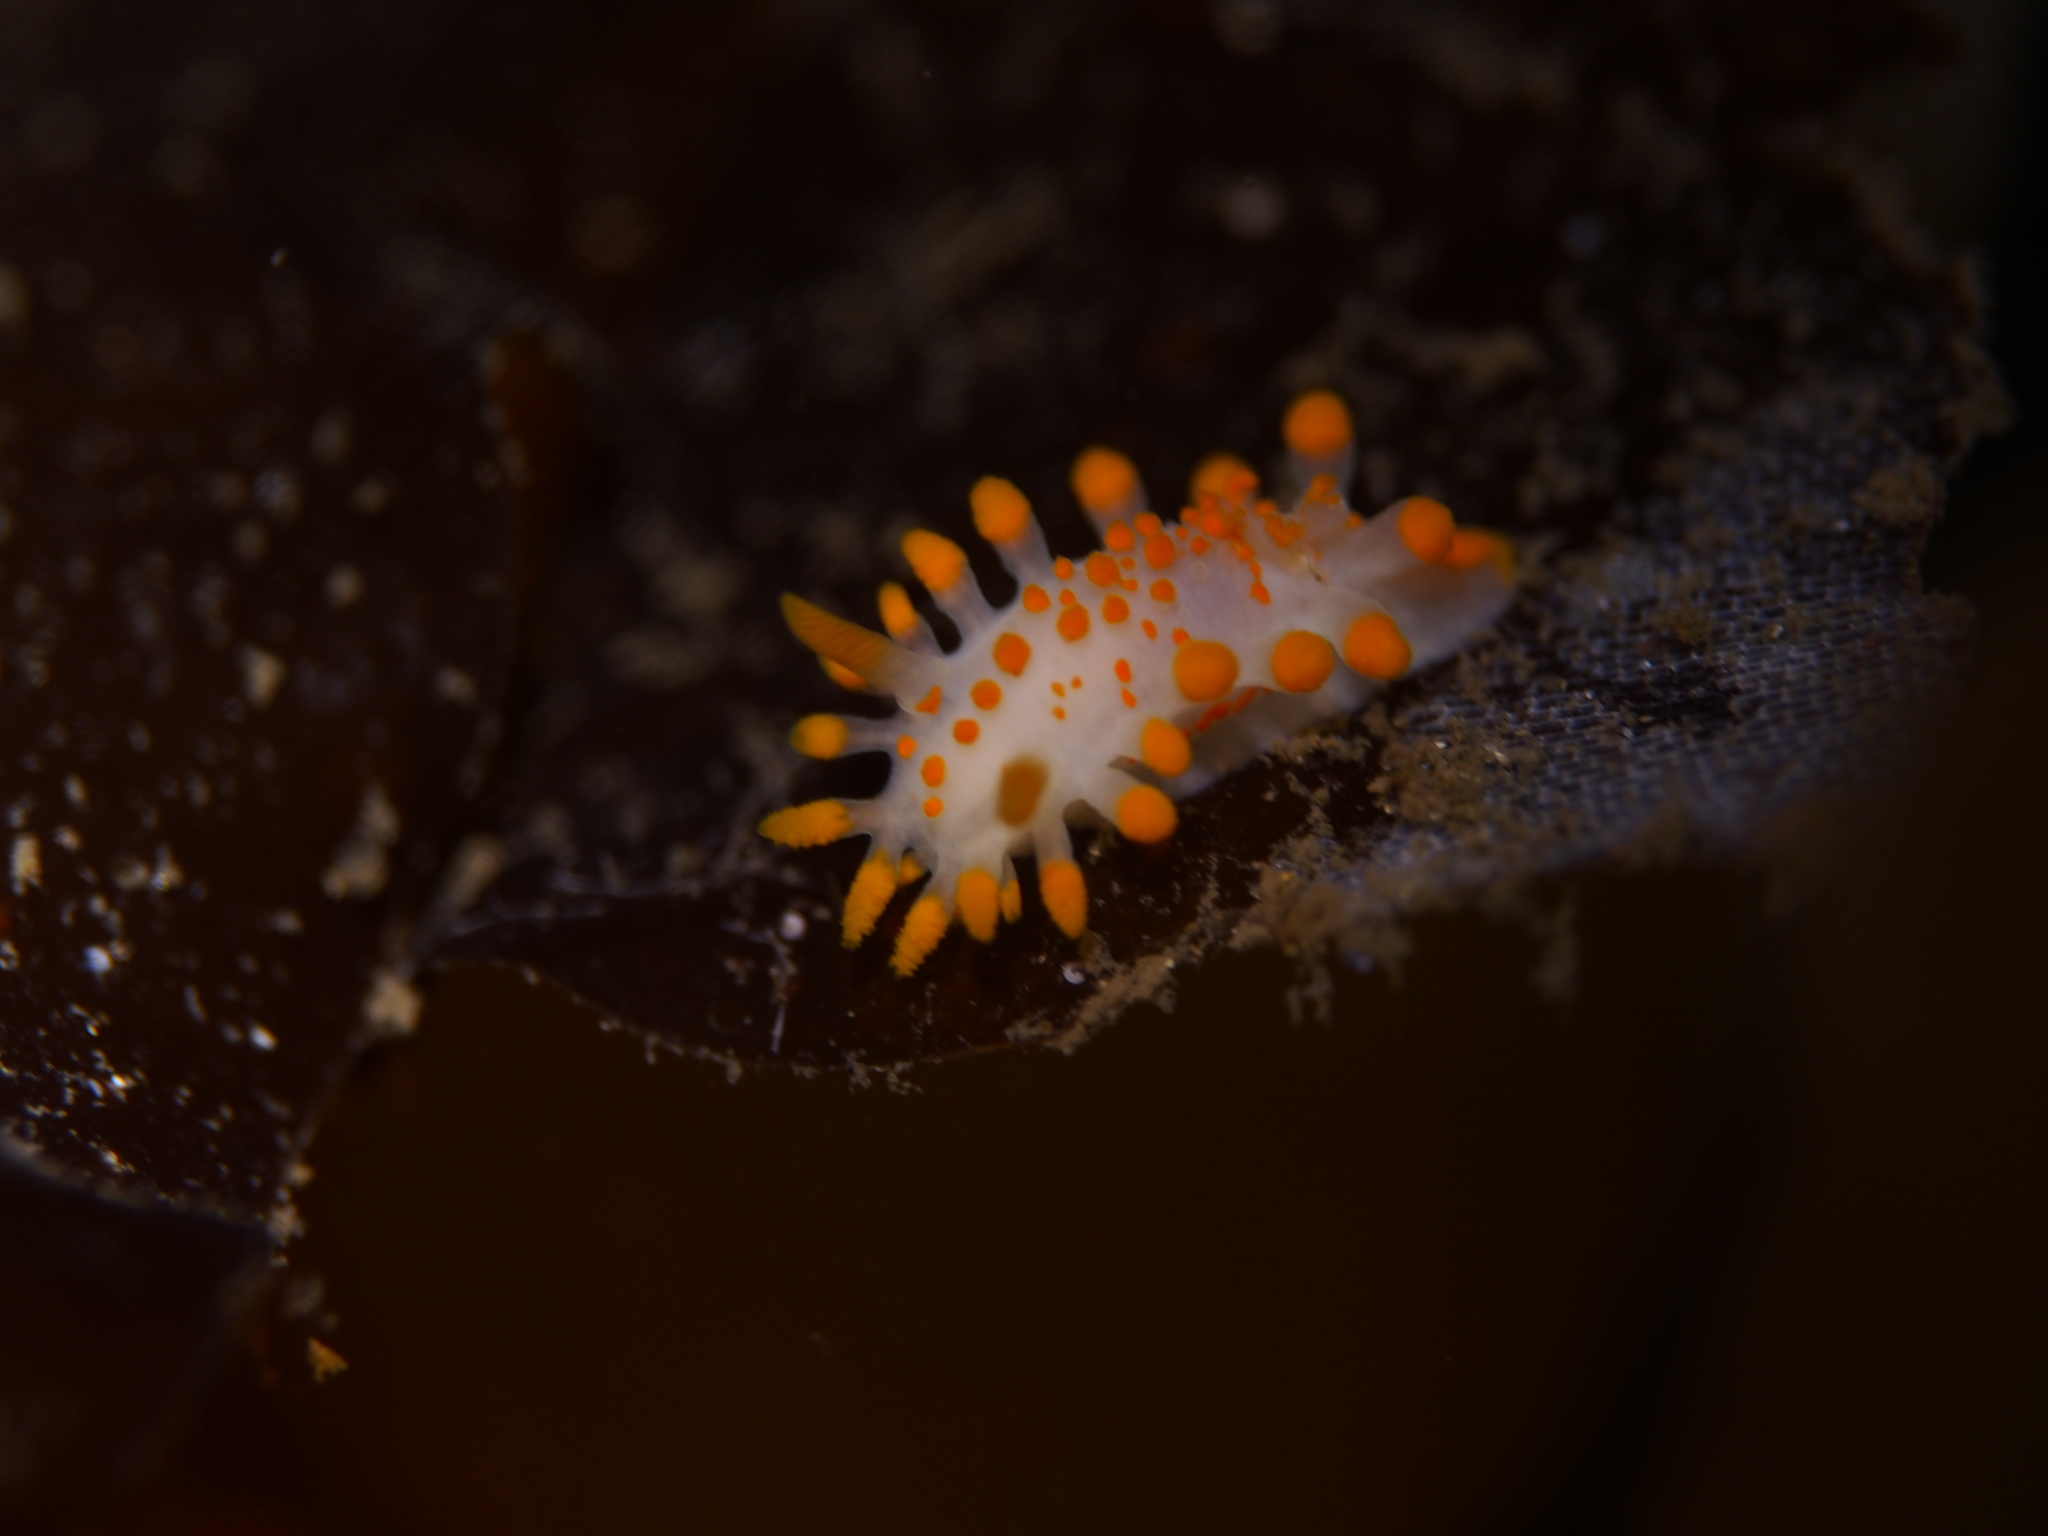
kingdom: Animalia
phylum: Mollusca
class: Gastropoda
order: Nudibranchia
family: Polyceridae
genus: Limacia
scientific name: Limacia clavigera
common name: Orange-clubbed sea slug
